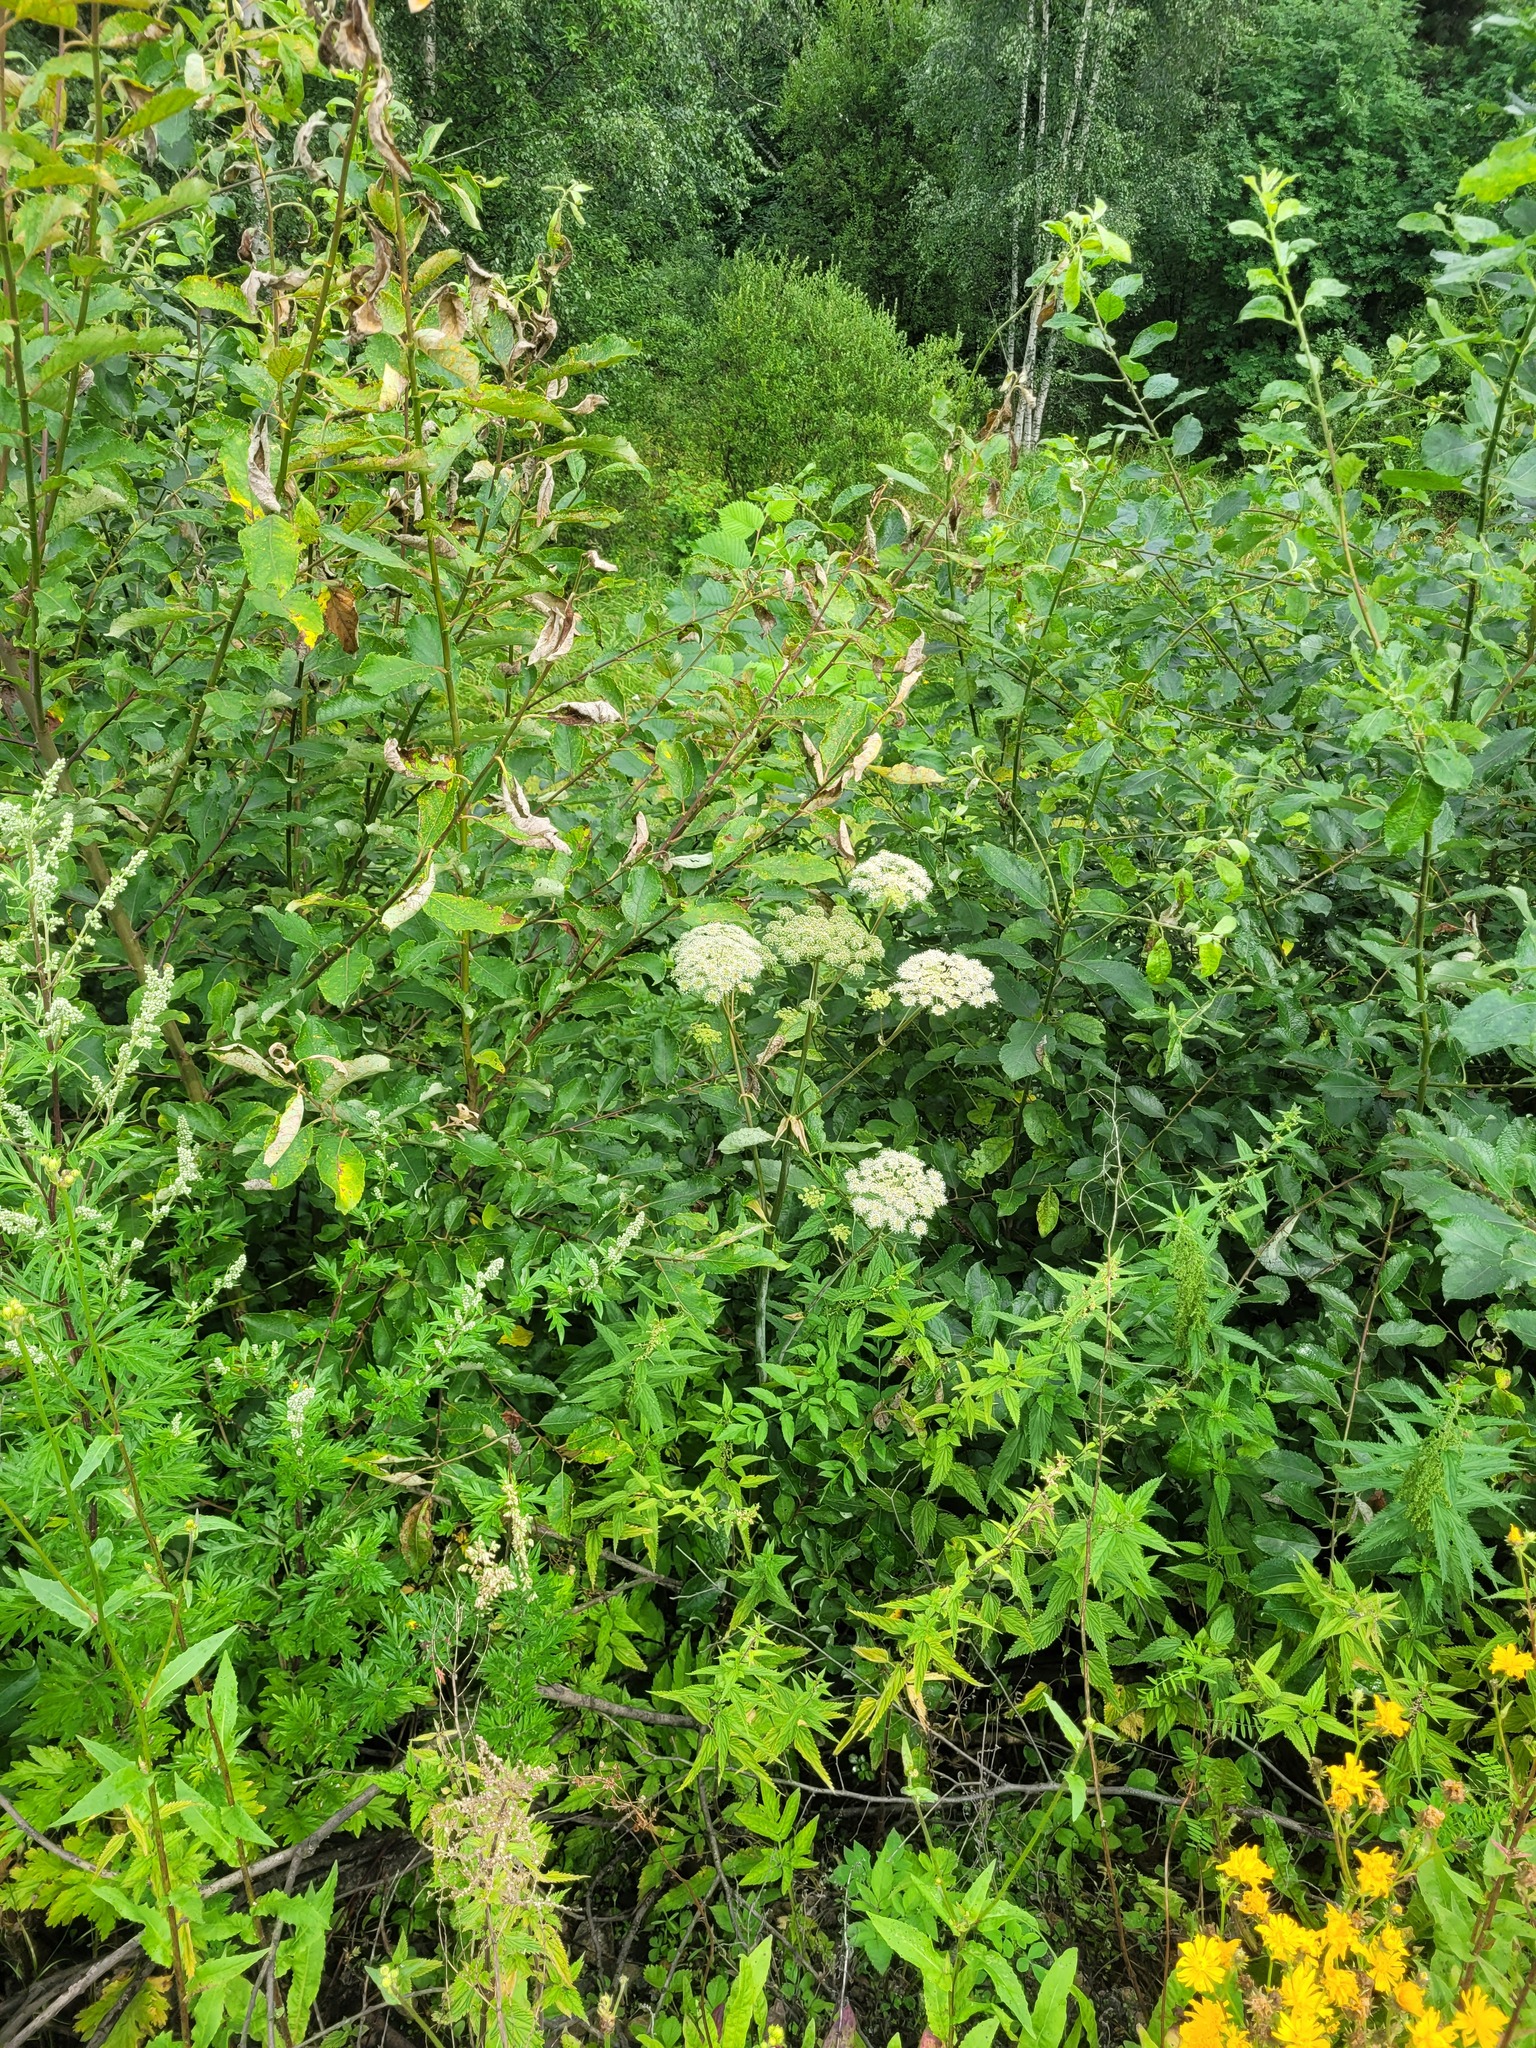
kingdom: Plantae
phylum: Tracheophyta
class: Magnoliopsida
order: Apiales
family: Apiaceae
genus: Angelica
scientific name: Angelica sylvestris
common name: Wild angelica
